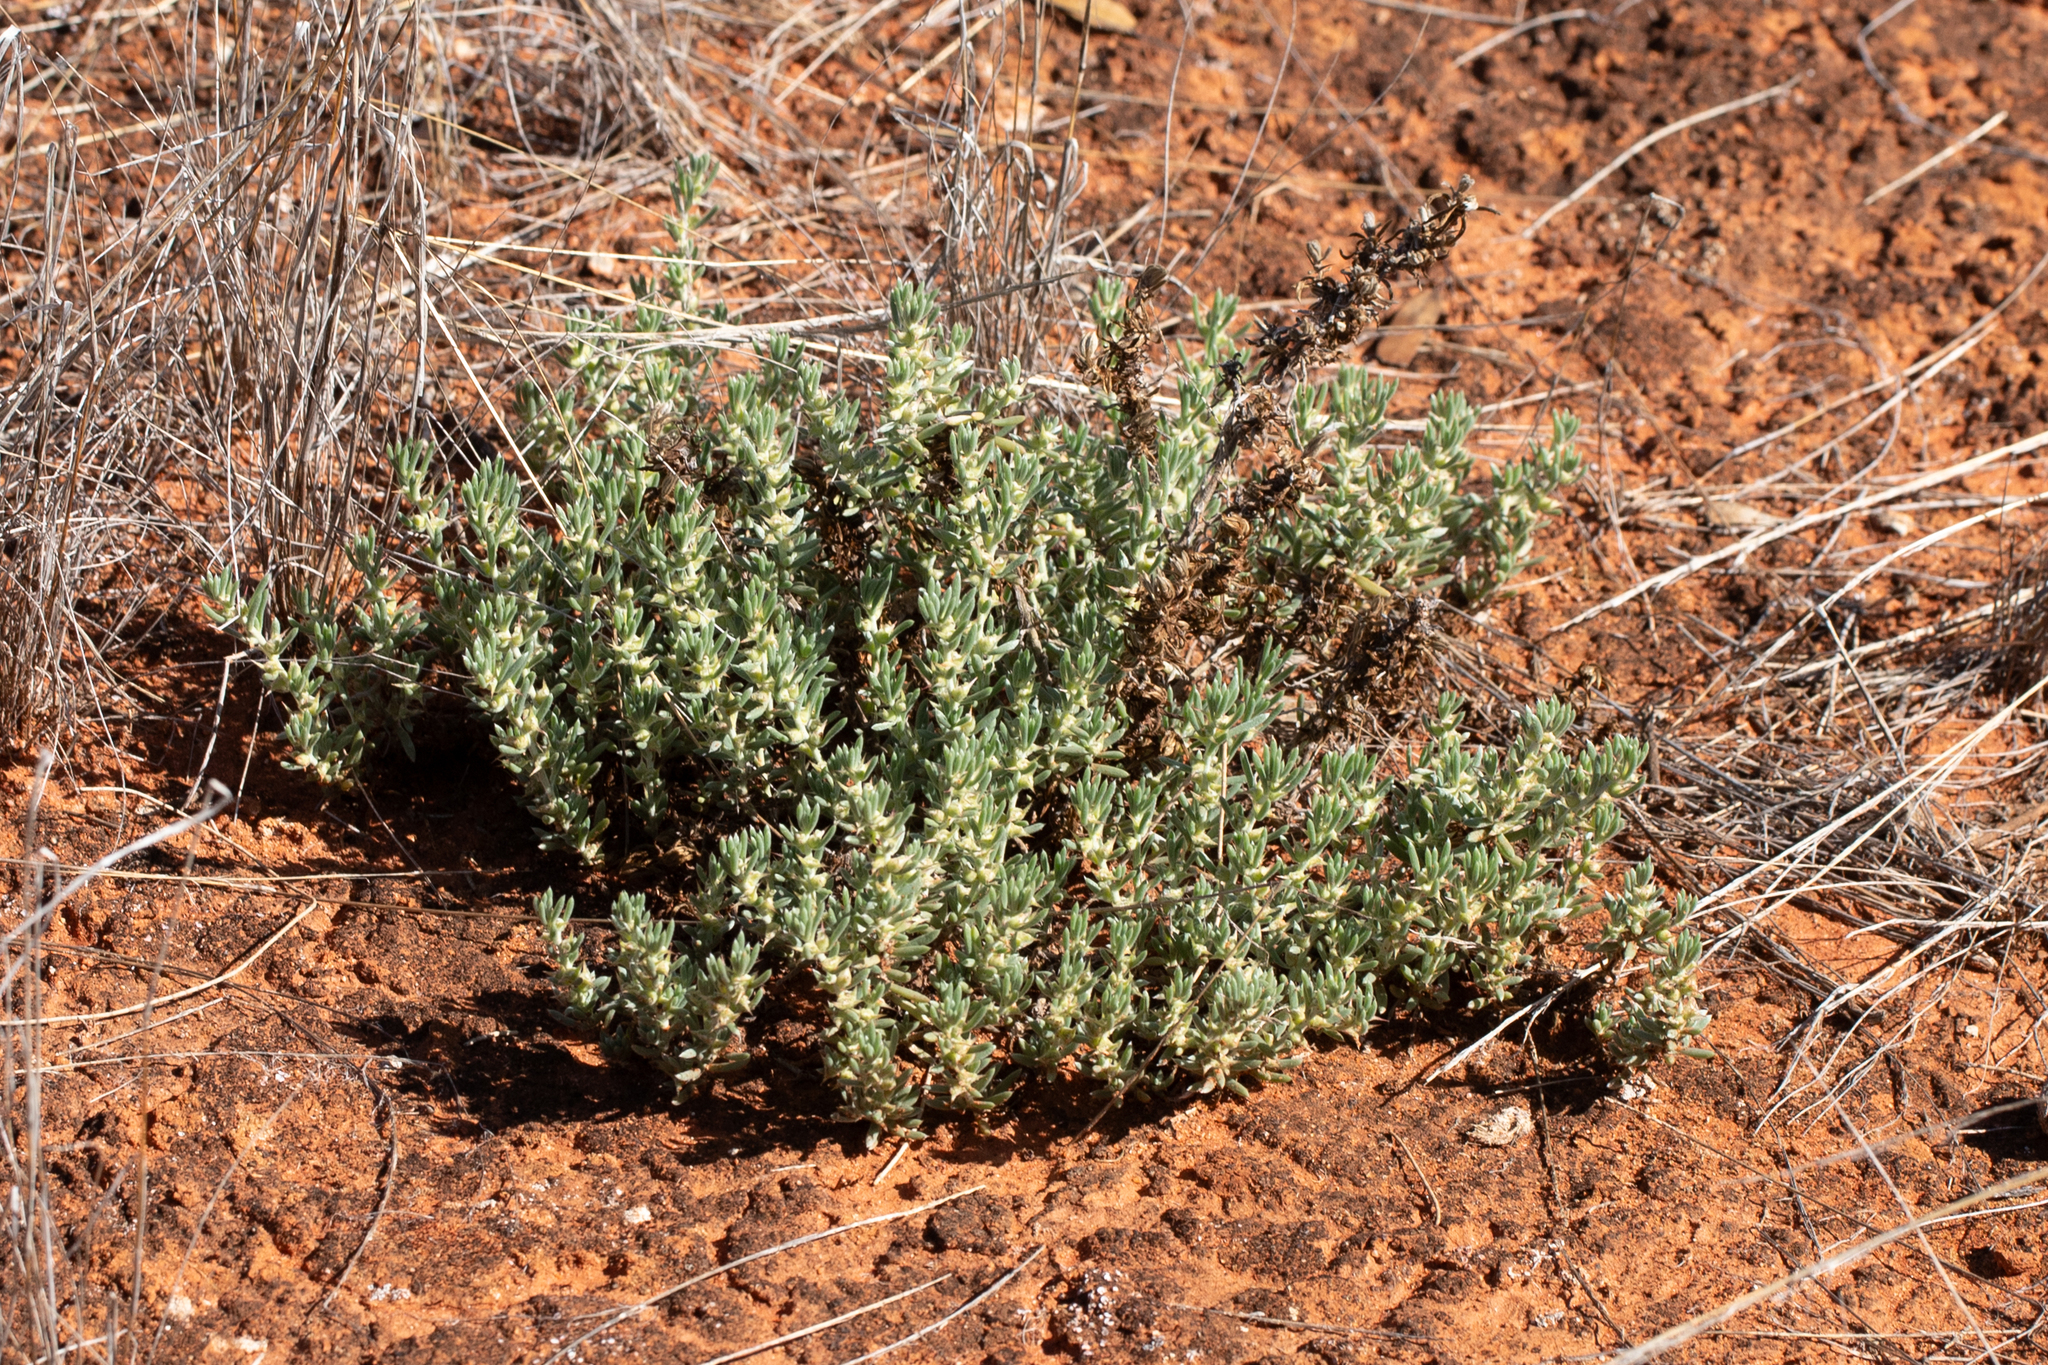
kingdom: Plantae
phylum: Tracheophyta
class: Magnoliopsida
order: Caryophyllales
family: Amaranthaceae
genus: Sclerolaena
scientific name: Sclerolaena diacantha
